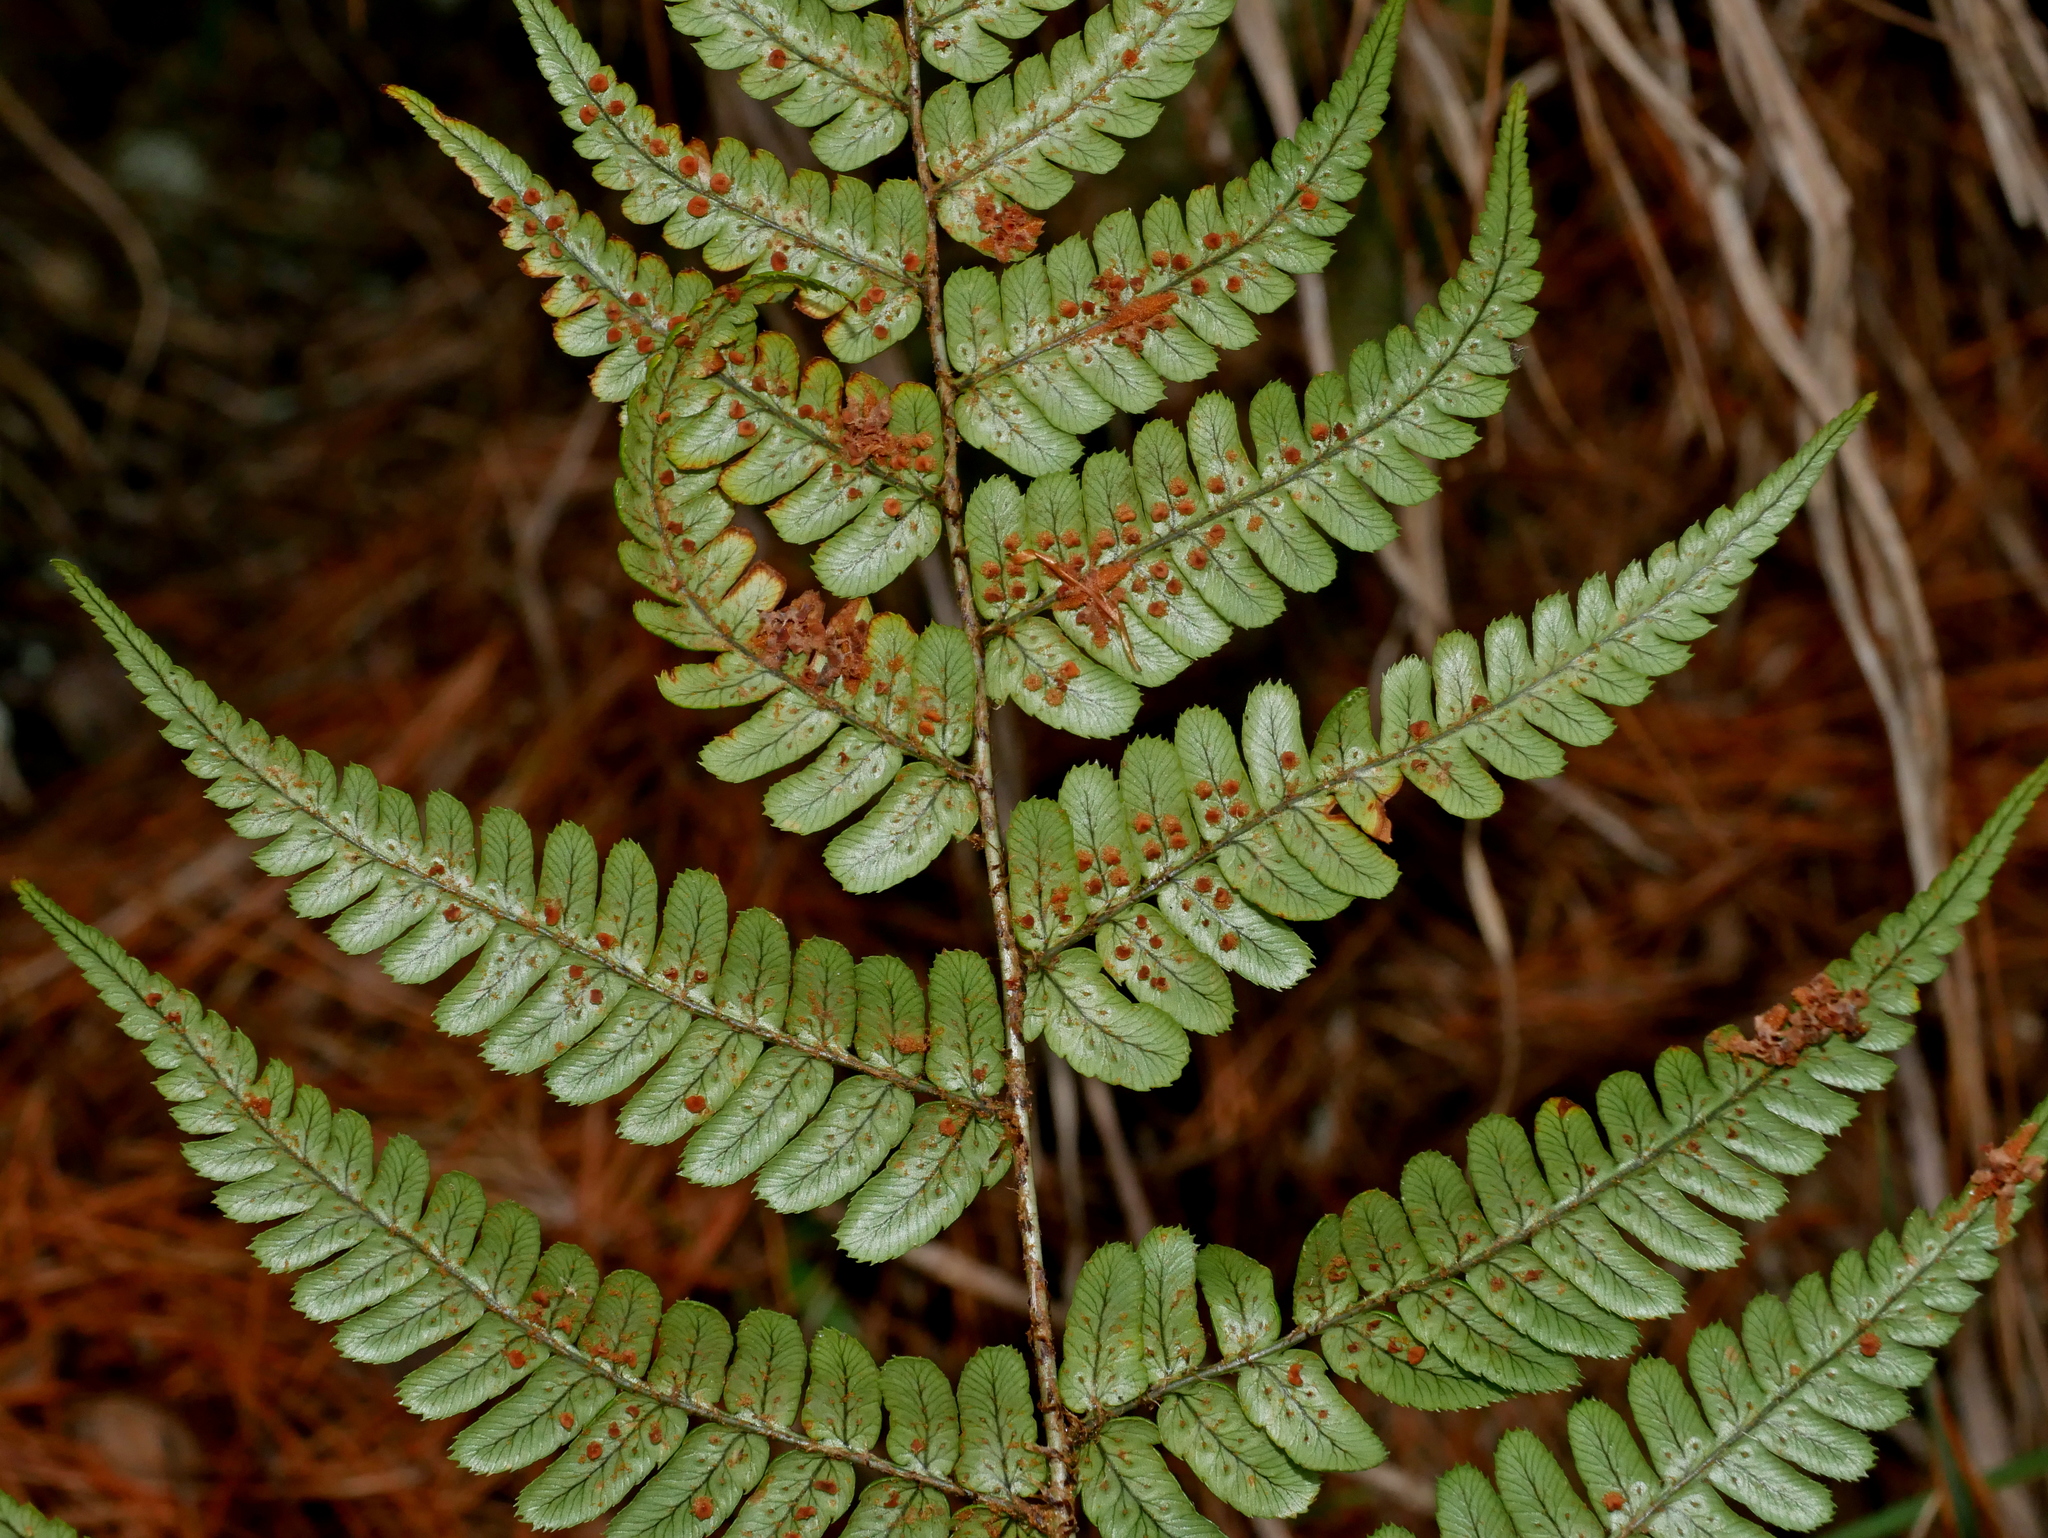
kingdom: Plantae
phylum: Tracheophyta
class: Polypodiopsida
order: Polypodiales
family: Dryopteridaceae
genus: Dryopteris
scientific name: Dryopteris lachoongensis
